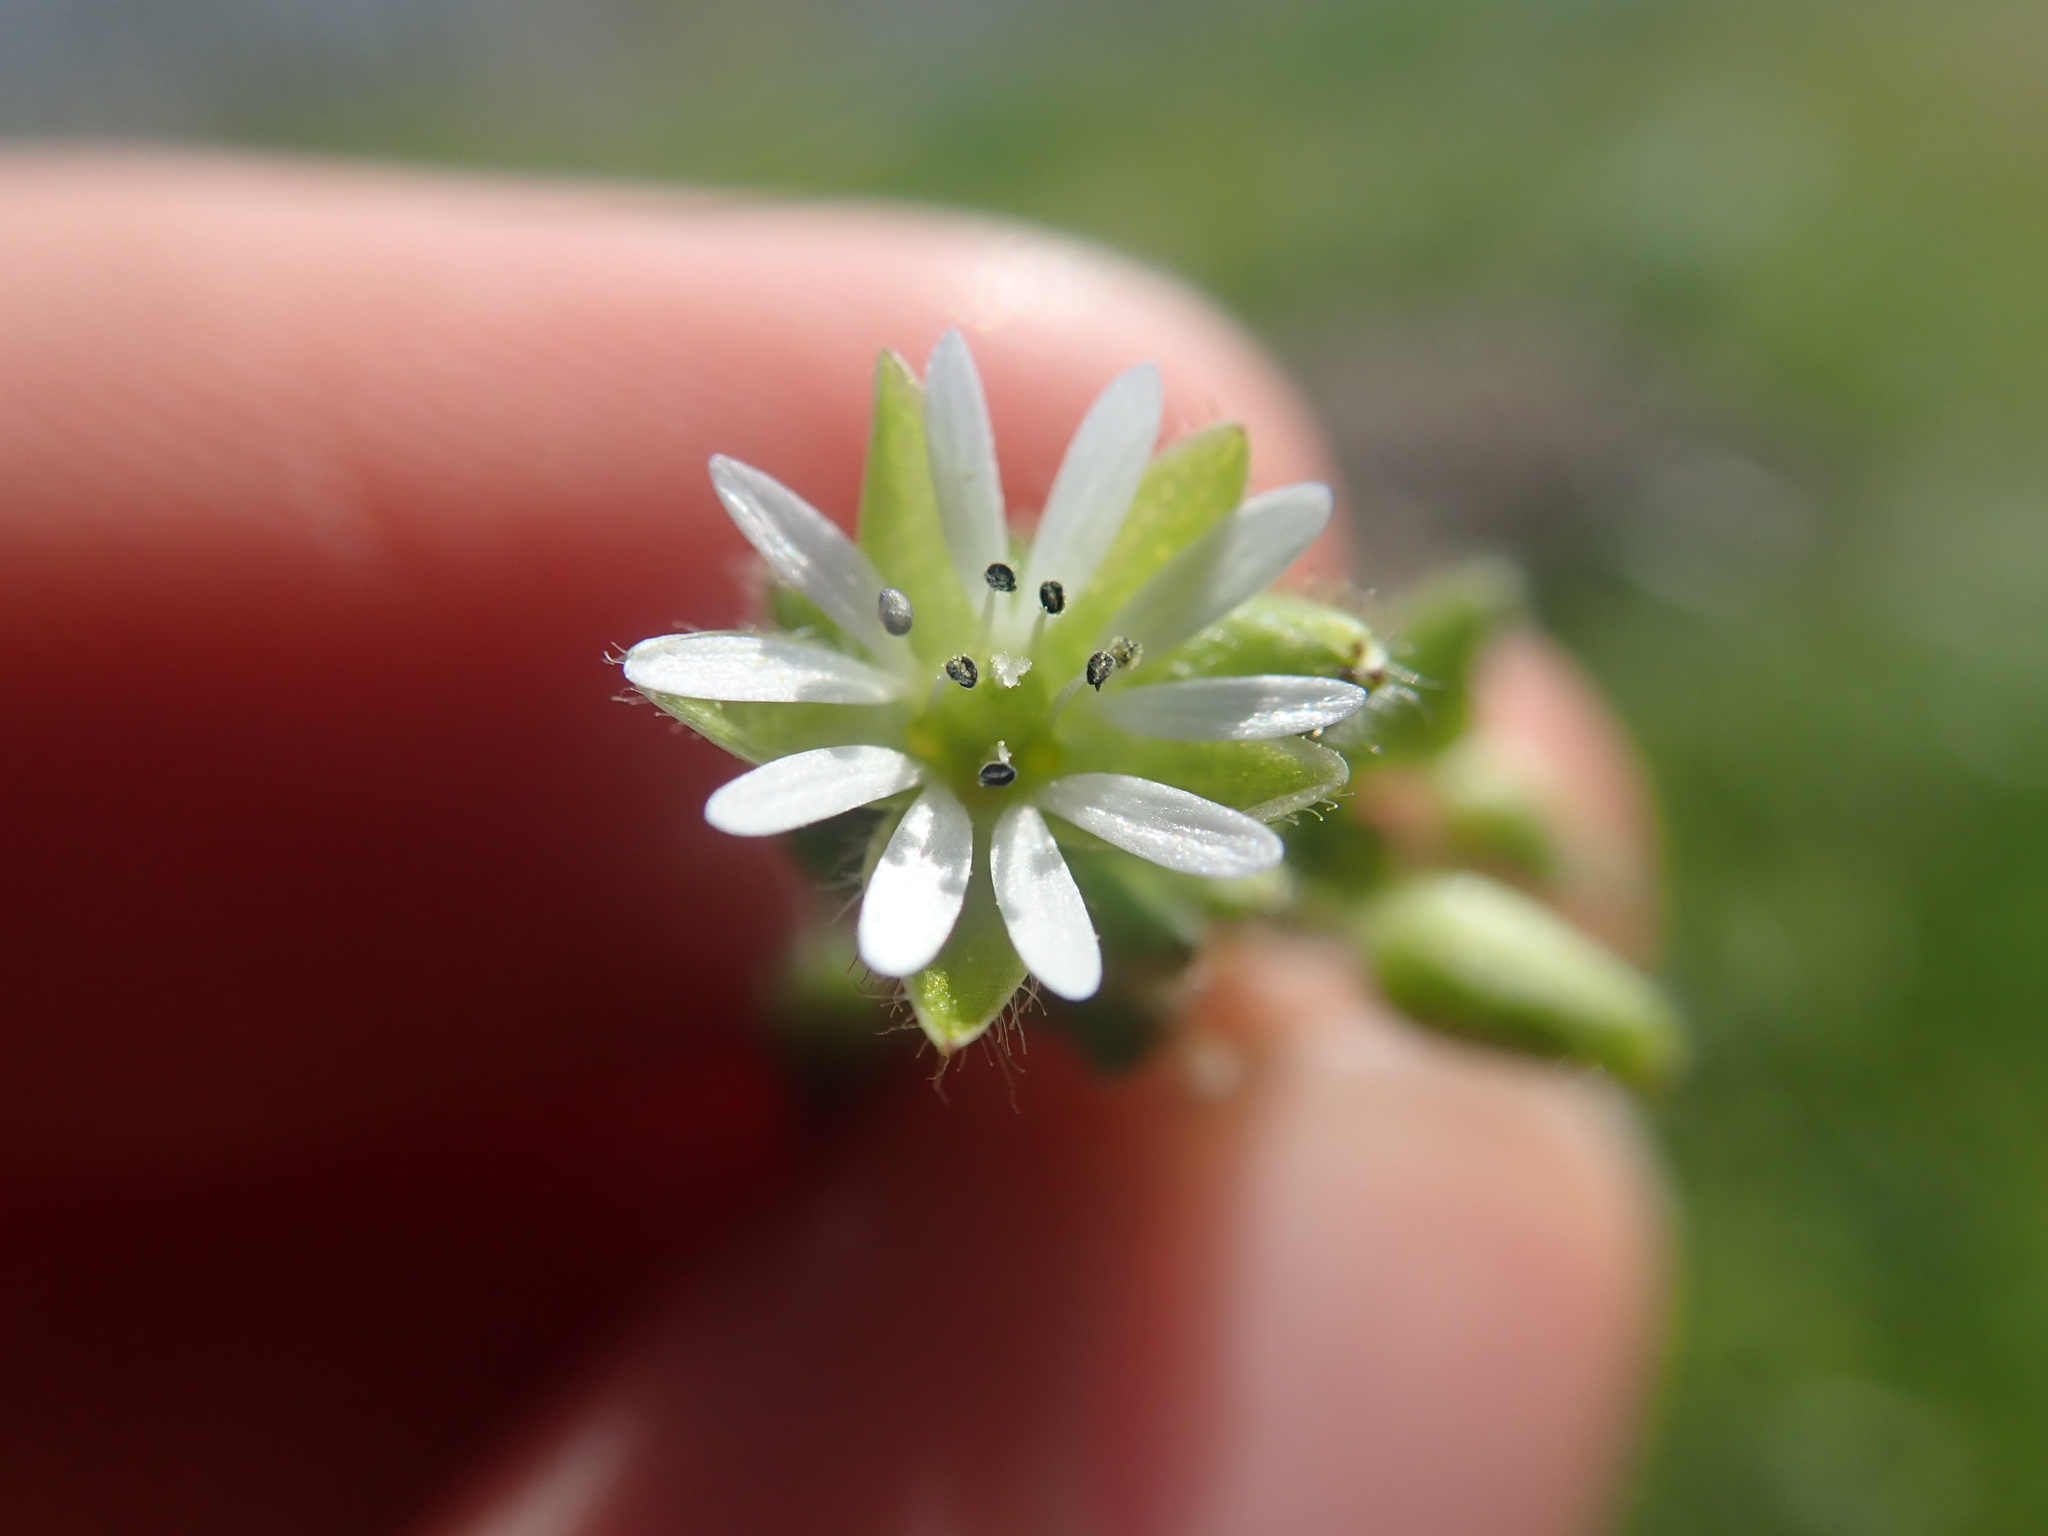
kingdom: Plantae
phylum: Tracheophyta
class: Magnoliopsida
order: Caryophyllales
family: Caryophyllaceae
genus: Stellaria
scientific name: Stellaria media
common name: Common chickweed
